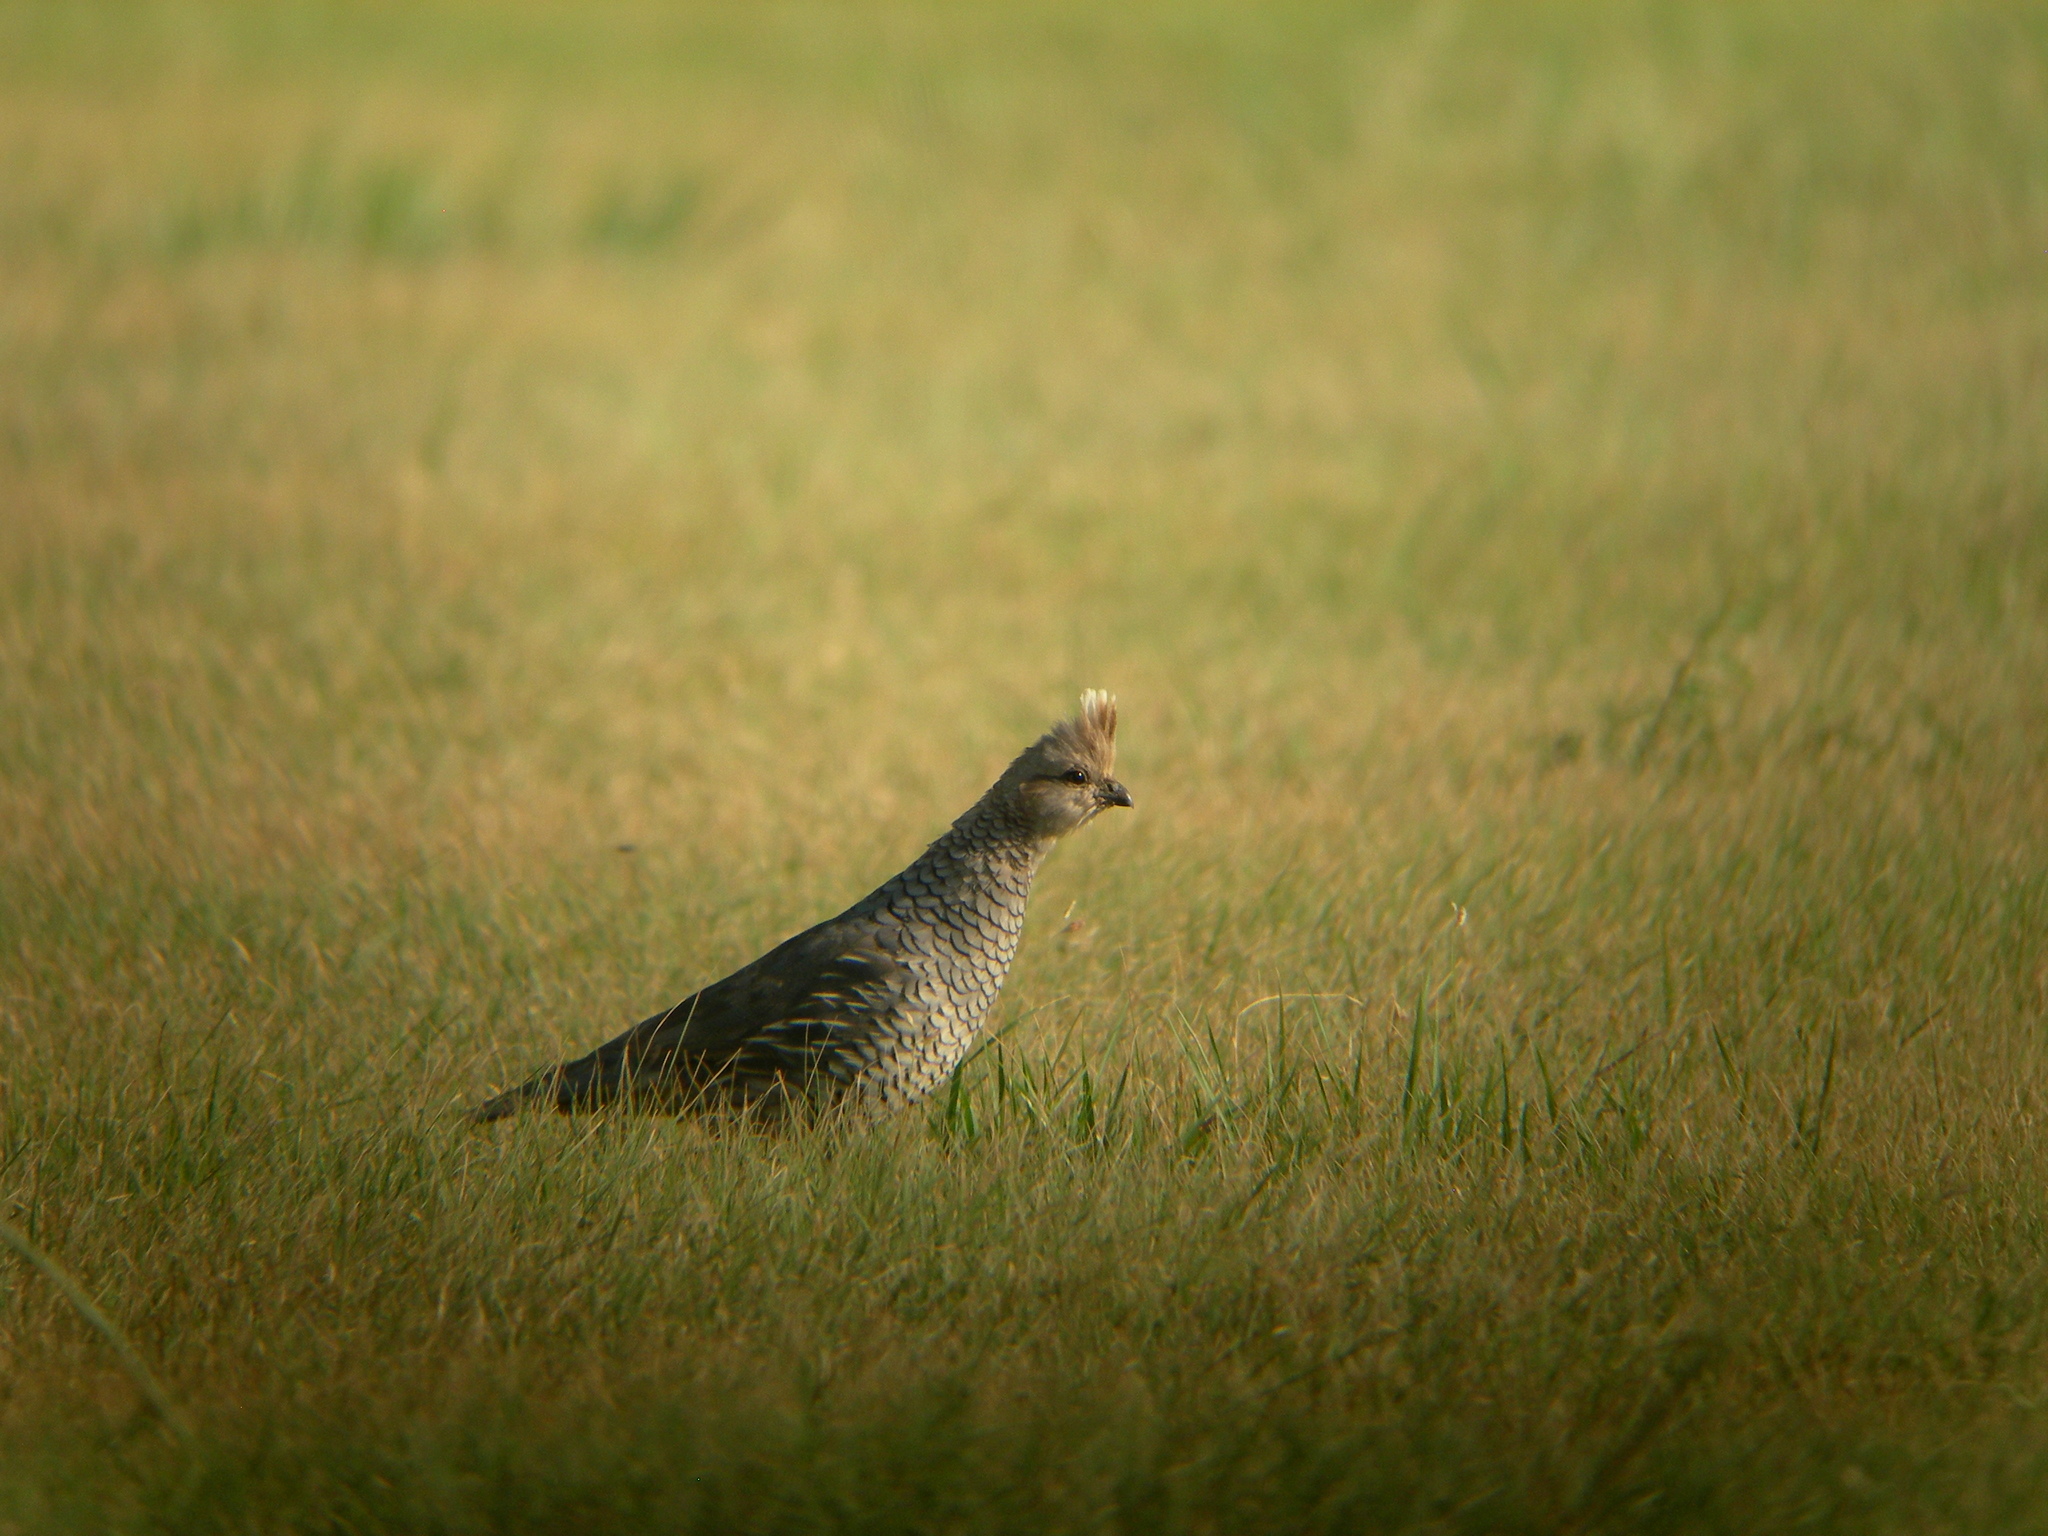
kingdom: Animalia
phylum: Chordata
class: Aves
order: Galliformes
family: Odontophoridae
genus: Callipepla
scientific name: Callipepla squamata
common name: Scaled quail
